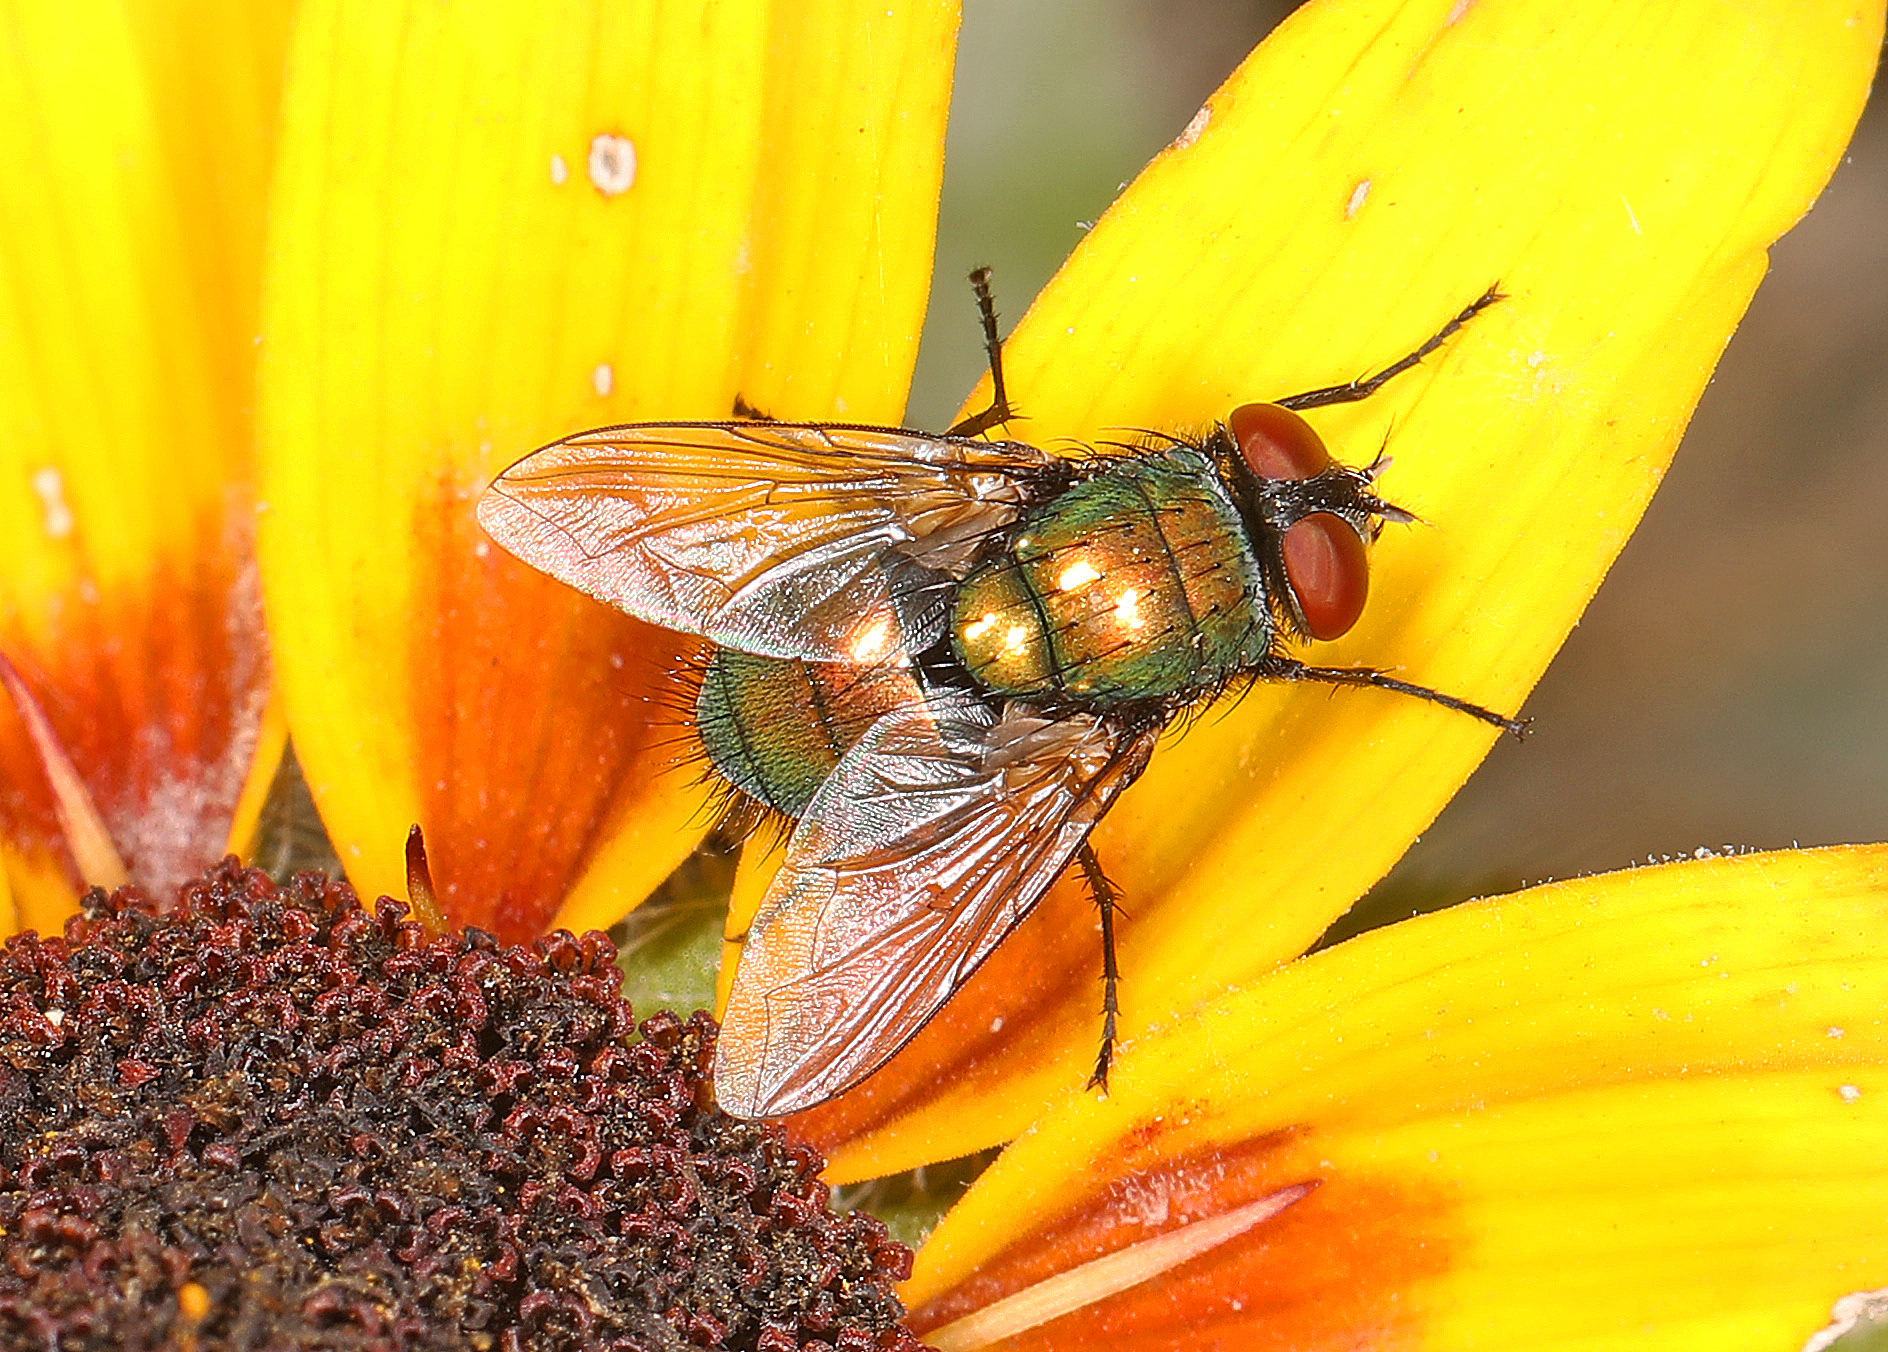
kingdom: Animalia
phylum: Arthropoda
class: Insecta
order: Diptera
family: Calliphoridae
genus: Lucilia
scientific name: Lucilia sericata
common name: Blow fly
